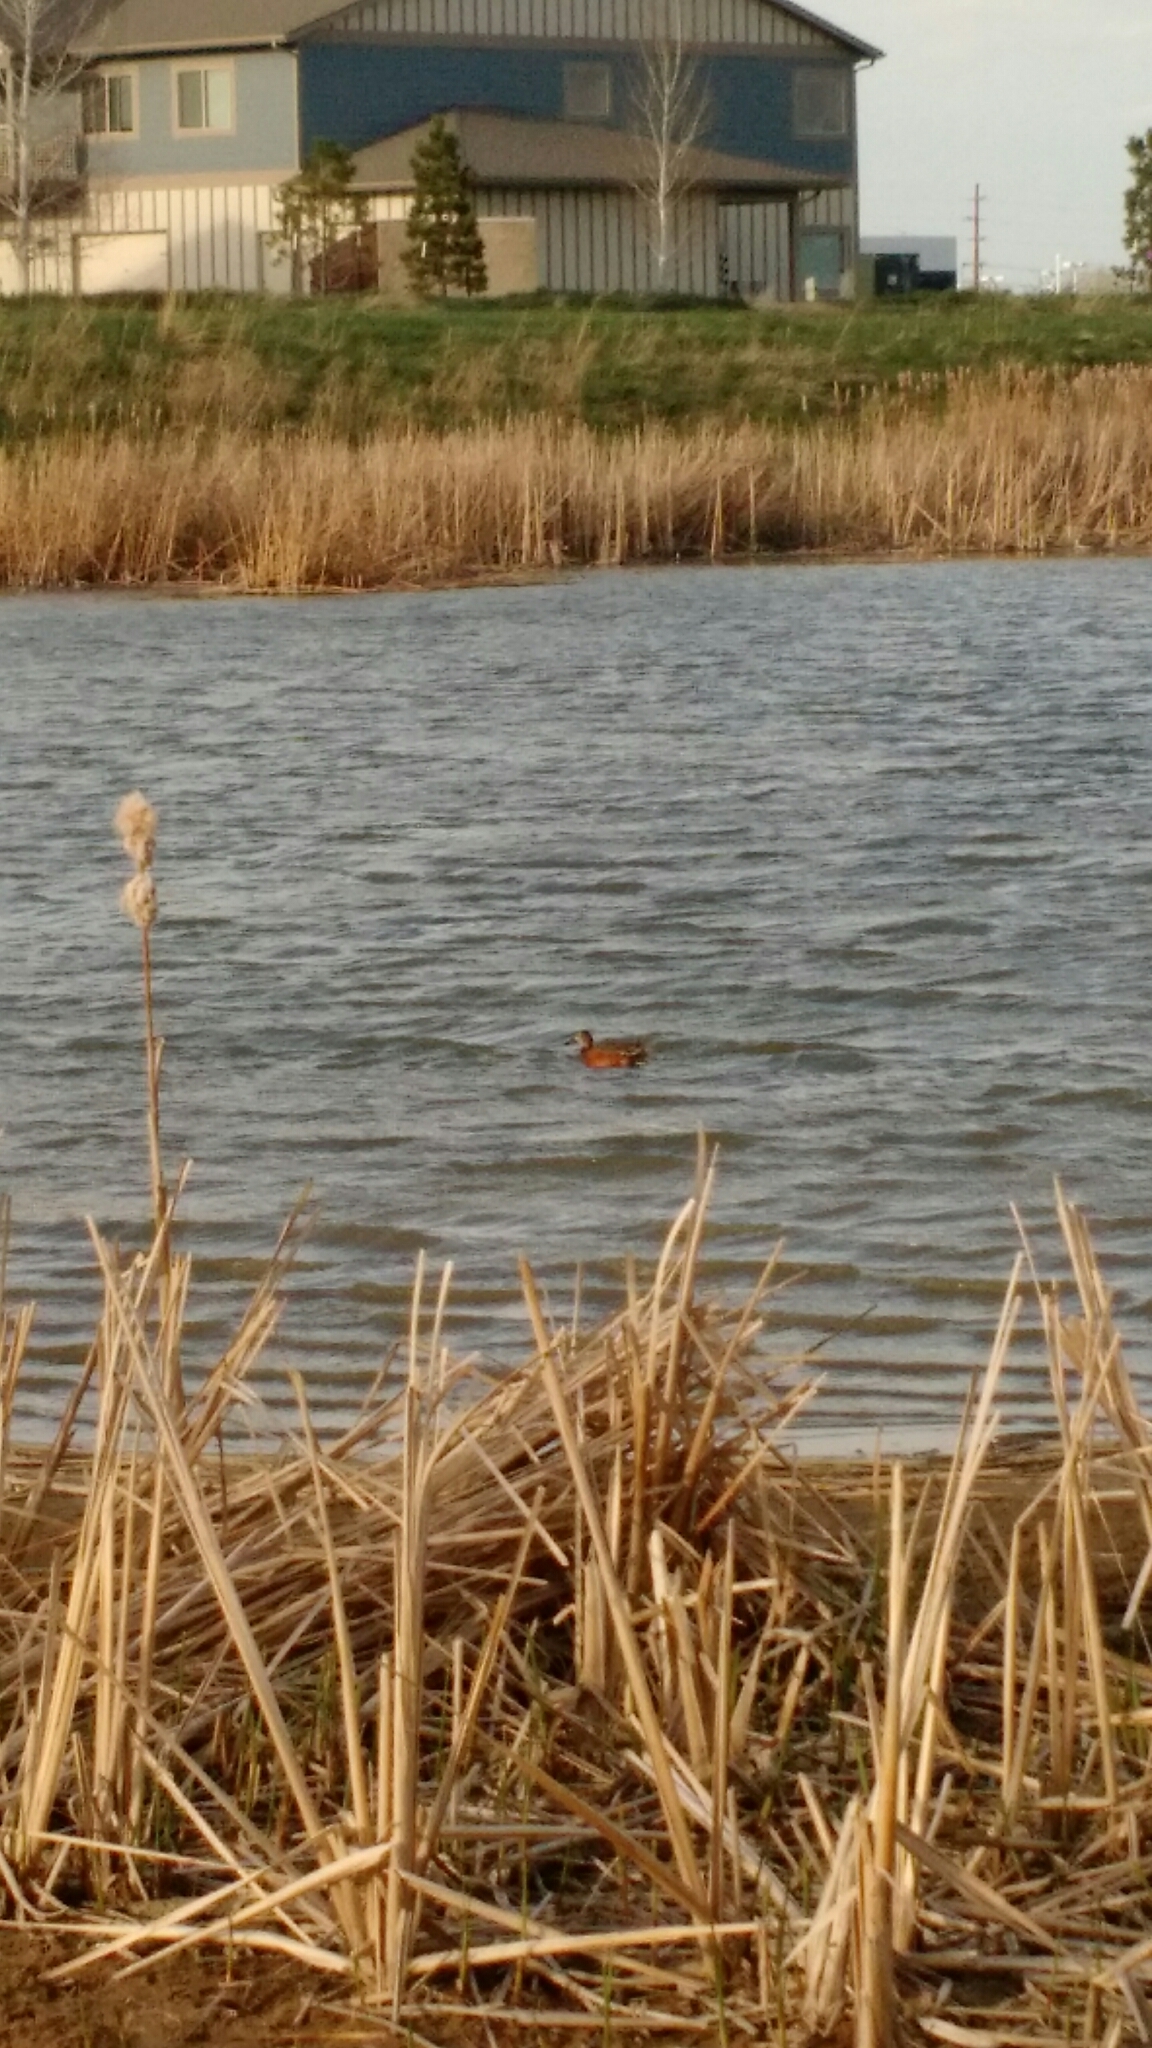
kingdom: Animalia
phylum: Chordata
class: Aves
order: Anseriformes
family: Anatidae
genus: Spatula
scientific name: Spatula cyanoptera
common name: Cinnamon teal
